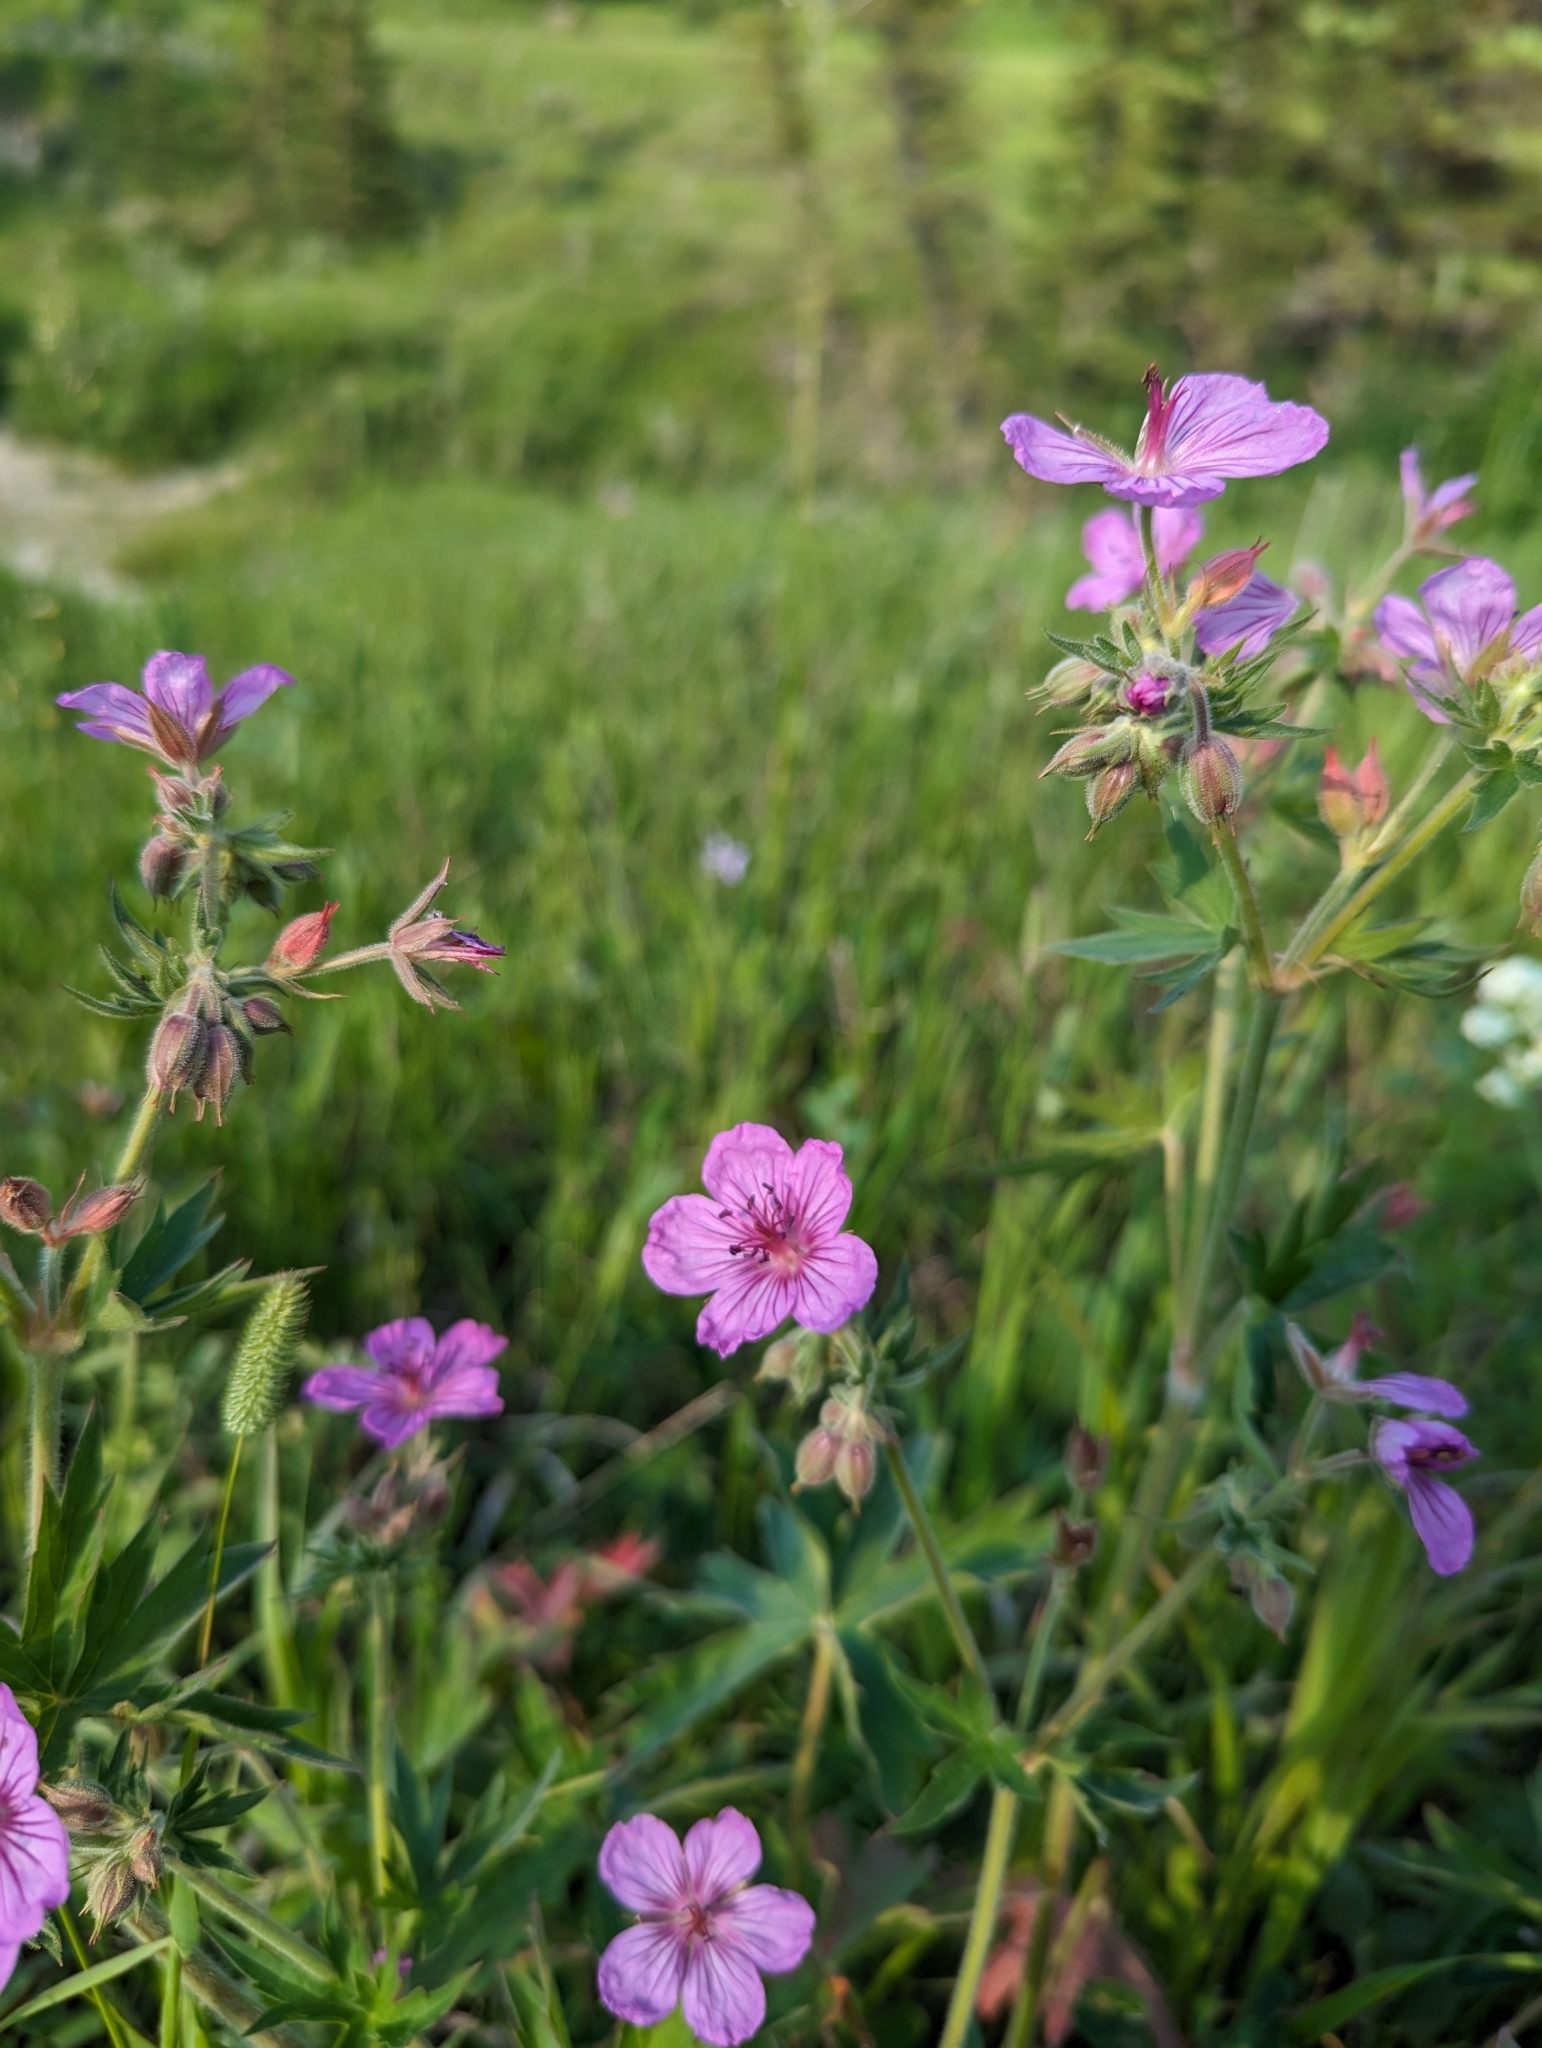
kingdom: Plantae
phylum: Tracheophyta
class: Magnoliopsida
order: Geraniales
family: Geraniaceae
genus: Geranium
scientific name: Geranium viscosissimum
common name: Purple geranium
